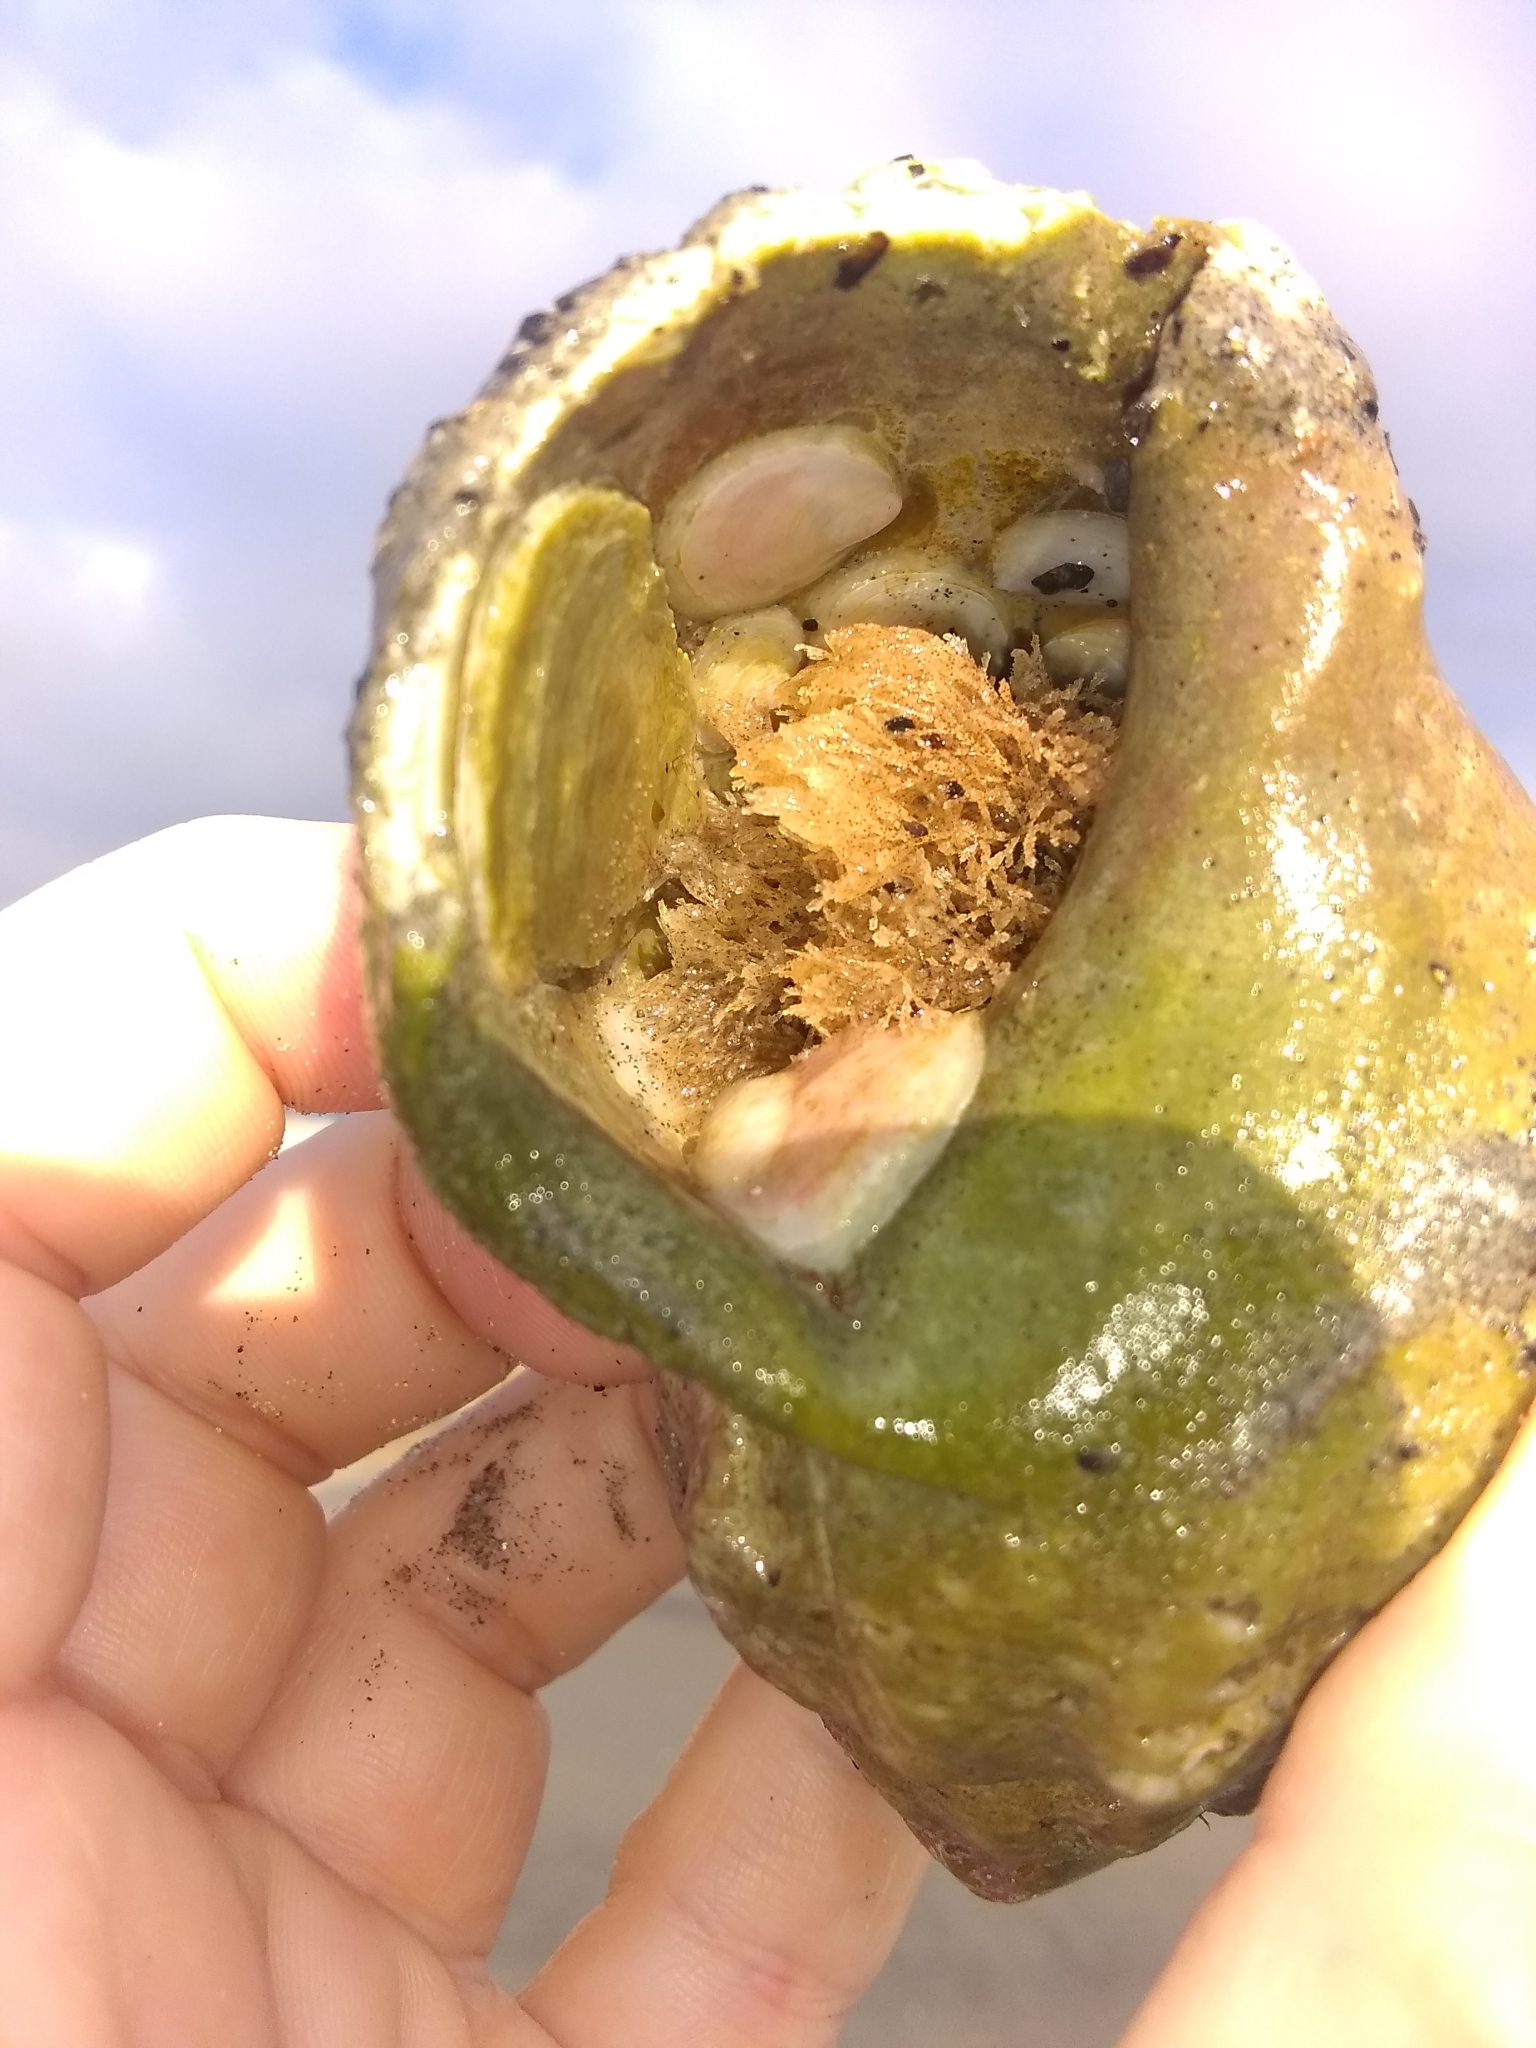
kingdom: Animalia
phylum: Mollusca
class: Gastropoda
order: Littorinimorpha
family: Calyptraeidae
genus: Crepidula
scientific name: Crepidula plana
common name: Eastern white slippersnail
